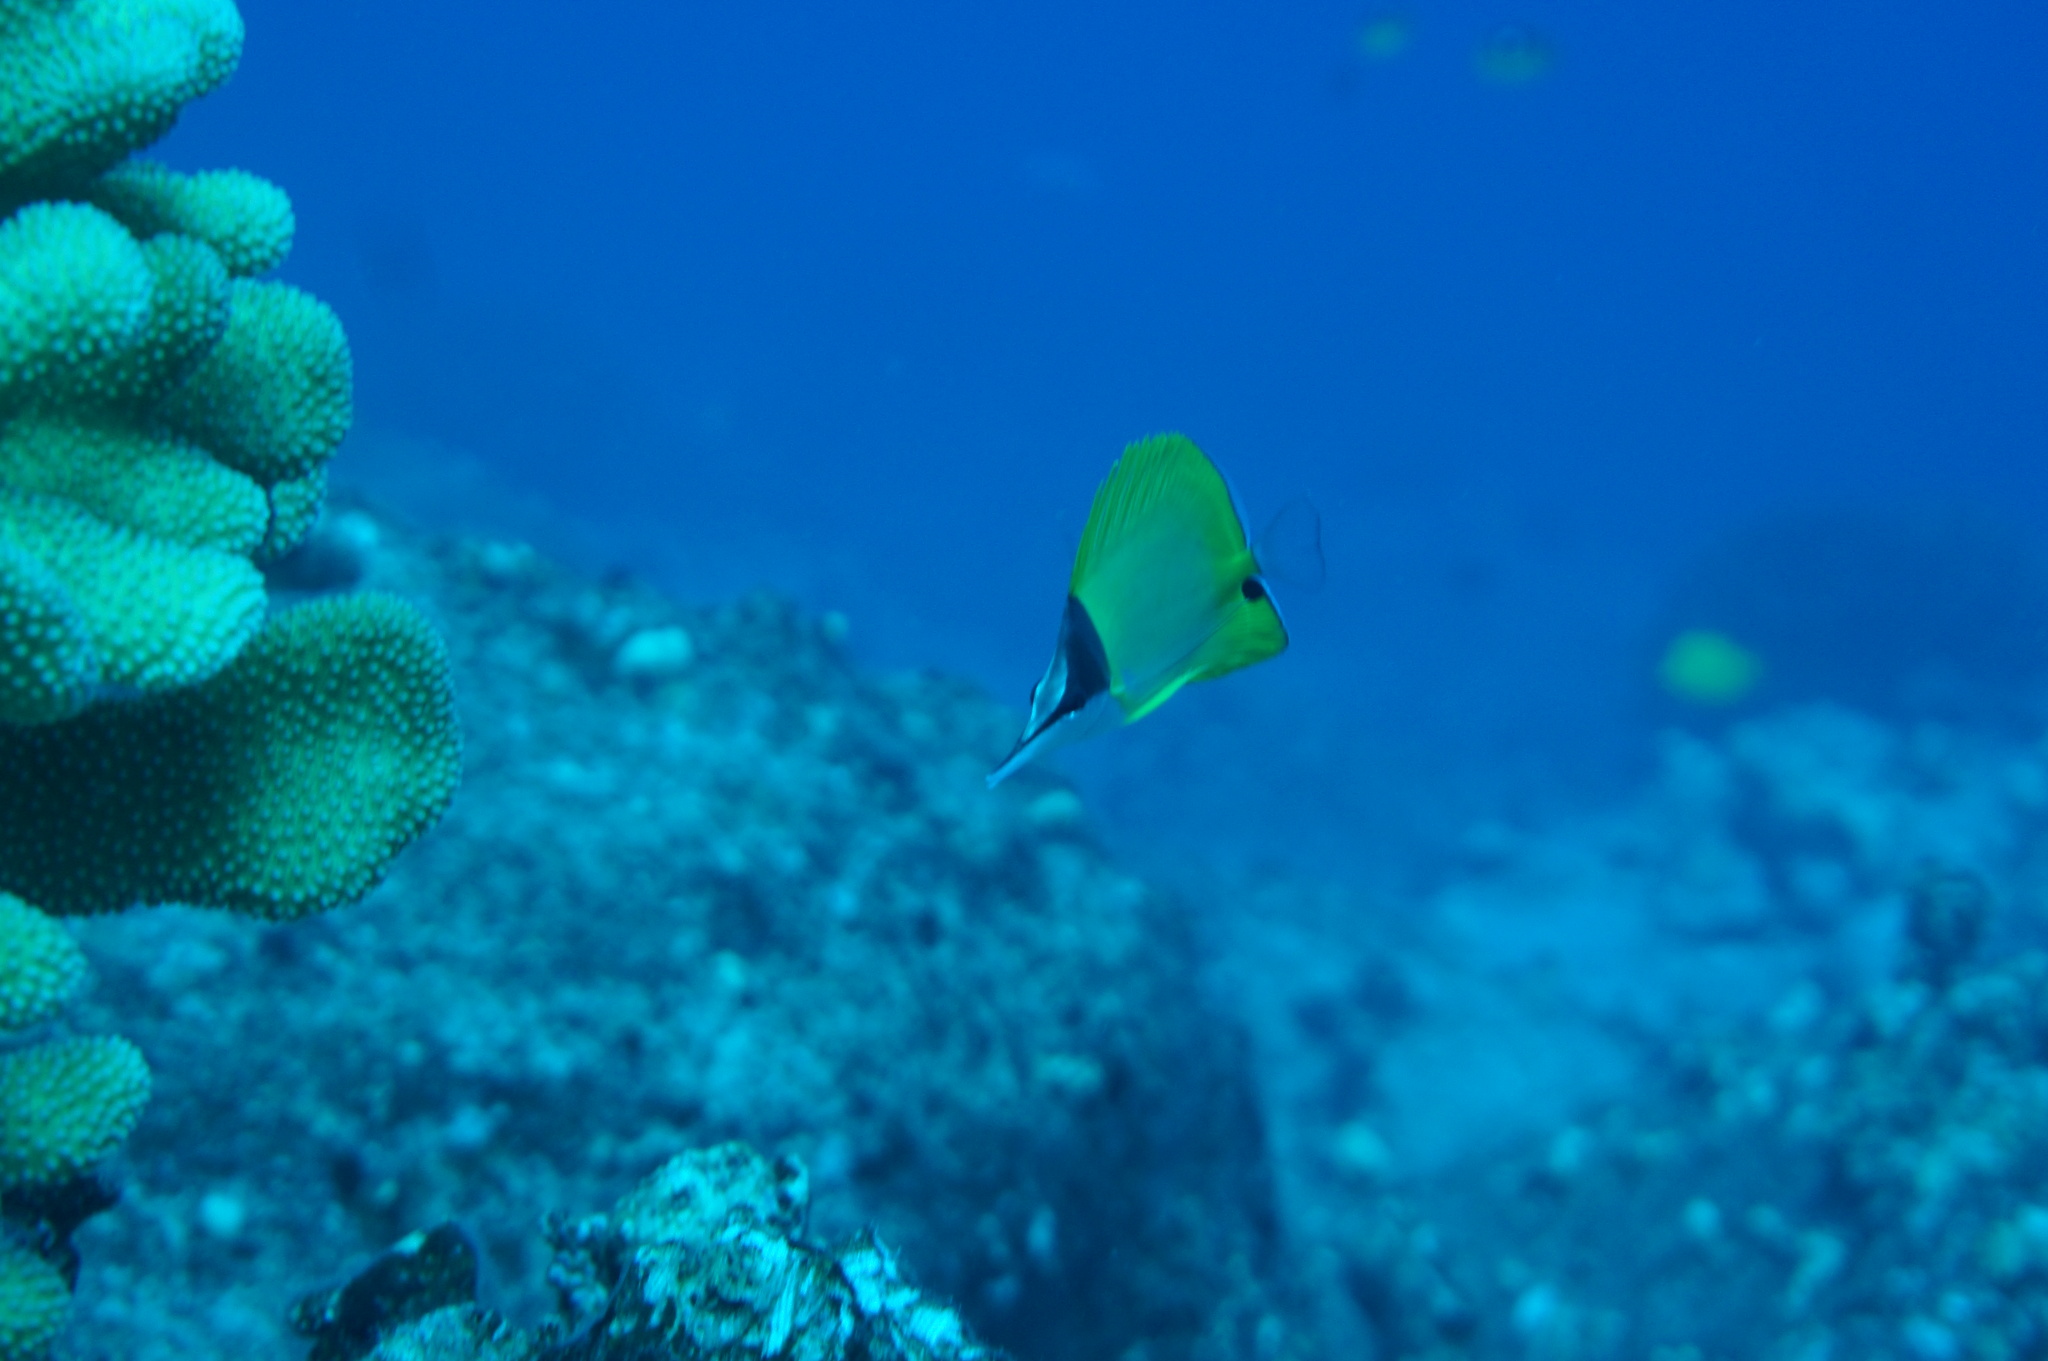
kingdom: Animalia
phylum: Chordata
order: Perciformes
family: Chaetodontidae
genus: Forcipiger
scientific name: Forcipiger flavissimus
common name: Forcepsfish
